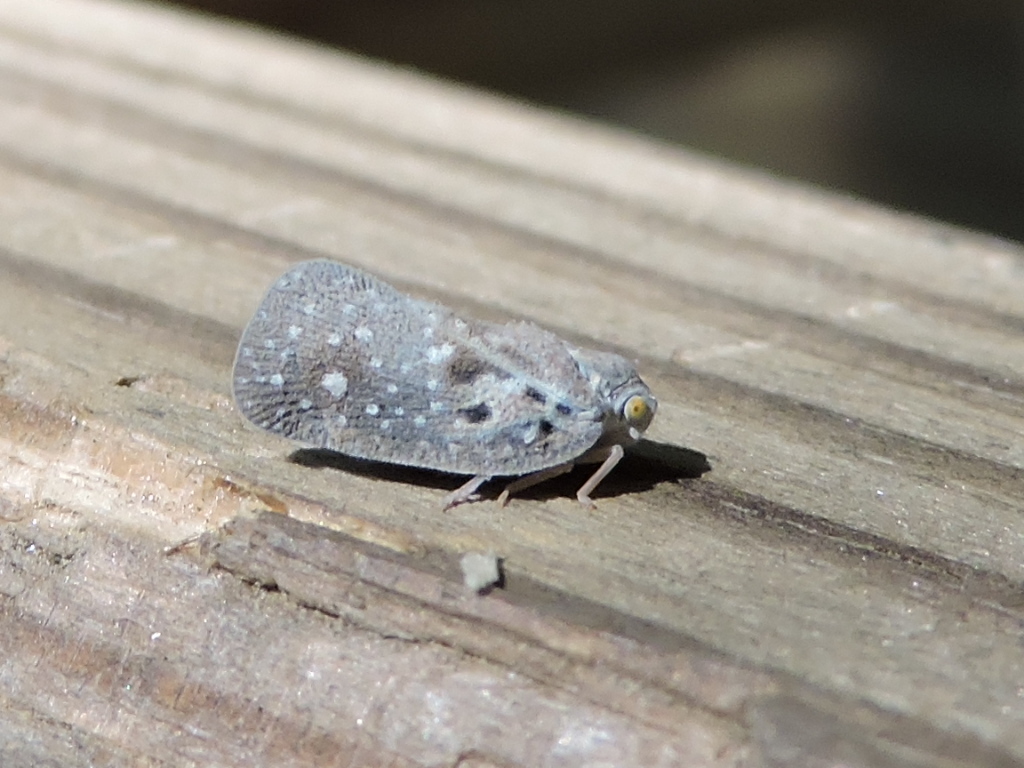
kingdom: Animalia
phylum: Arthropoda
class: Insecta
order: Hemiptera
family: Flatidae
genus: Metcalfa
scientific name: Metcalfa pruinosa
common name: Citrus flatid planthopper
